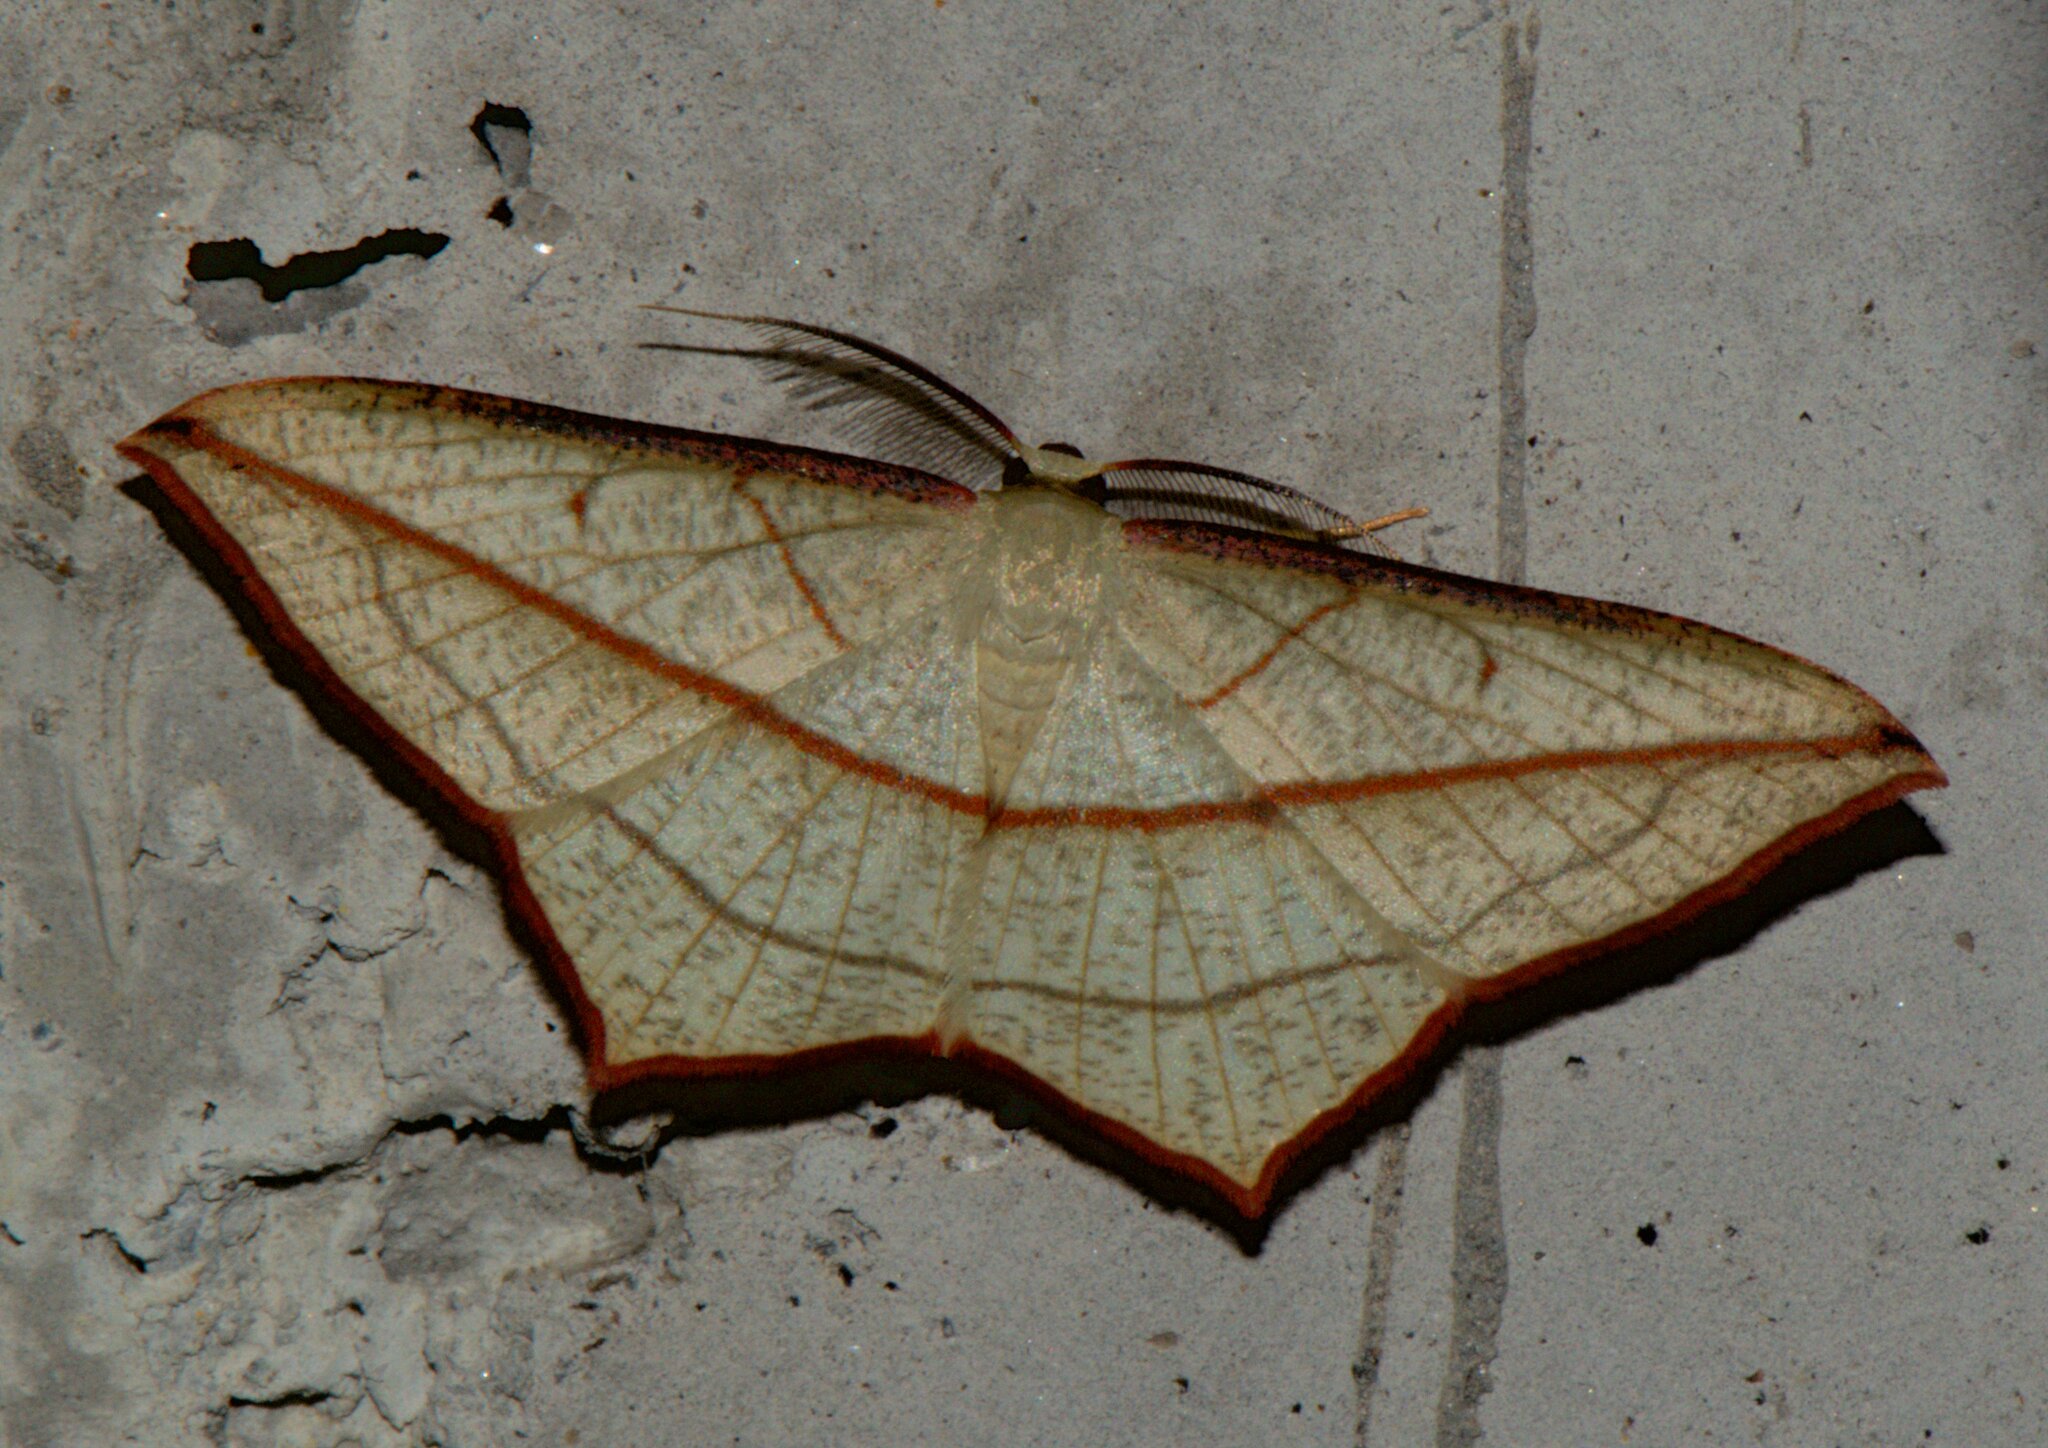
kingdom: Animalia
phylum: Arthropoda
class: Insecta
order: Lepidoptera
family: Geometridae
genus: Timandra
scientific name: Timandra correspondens
